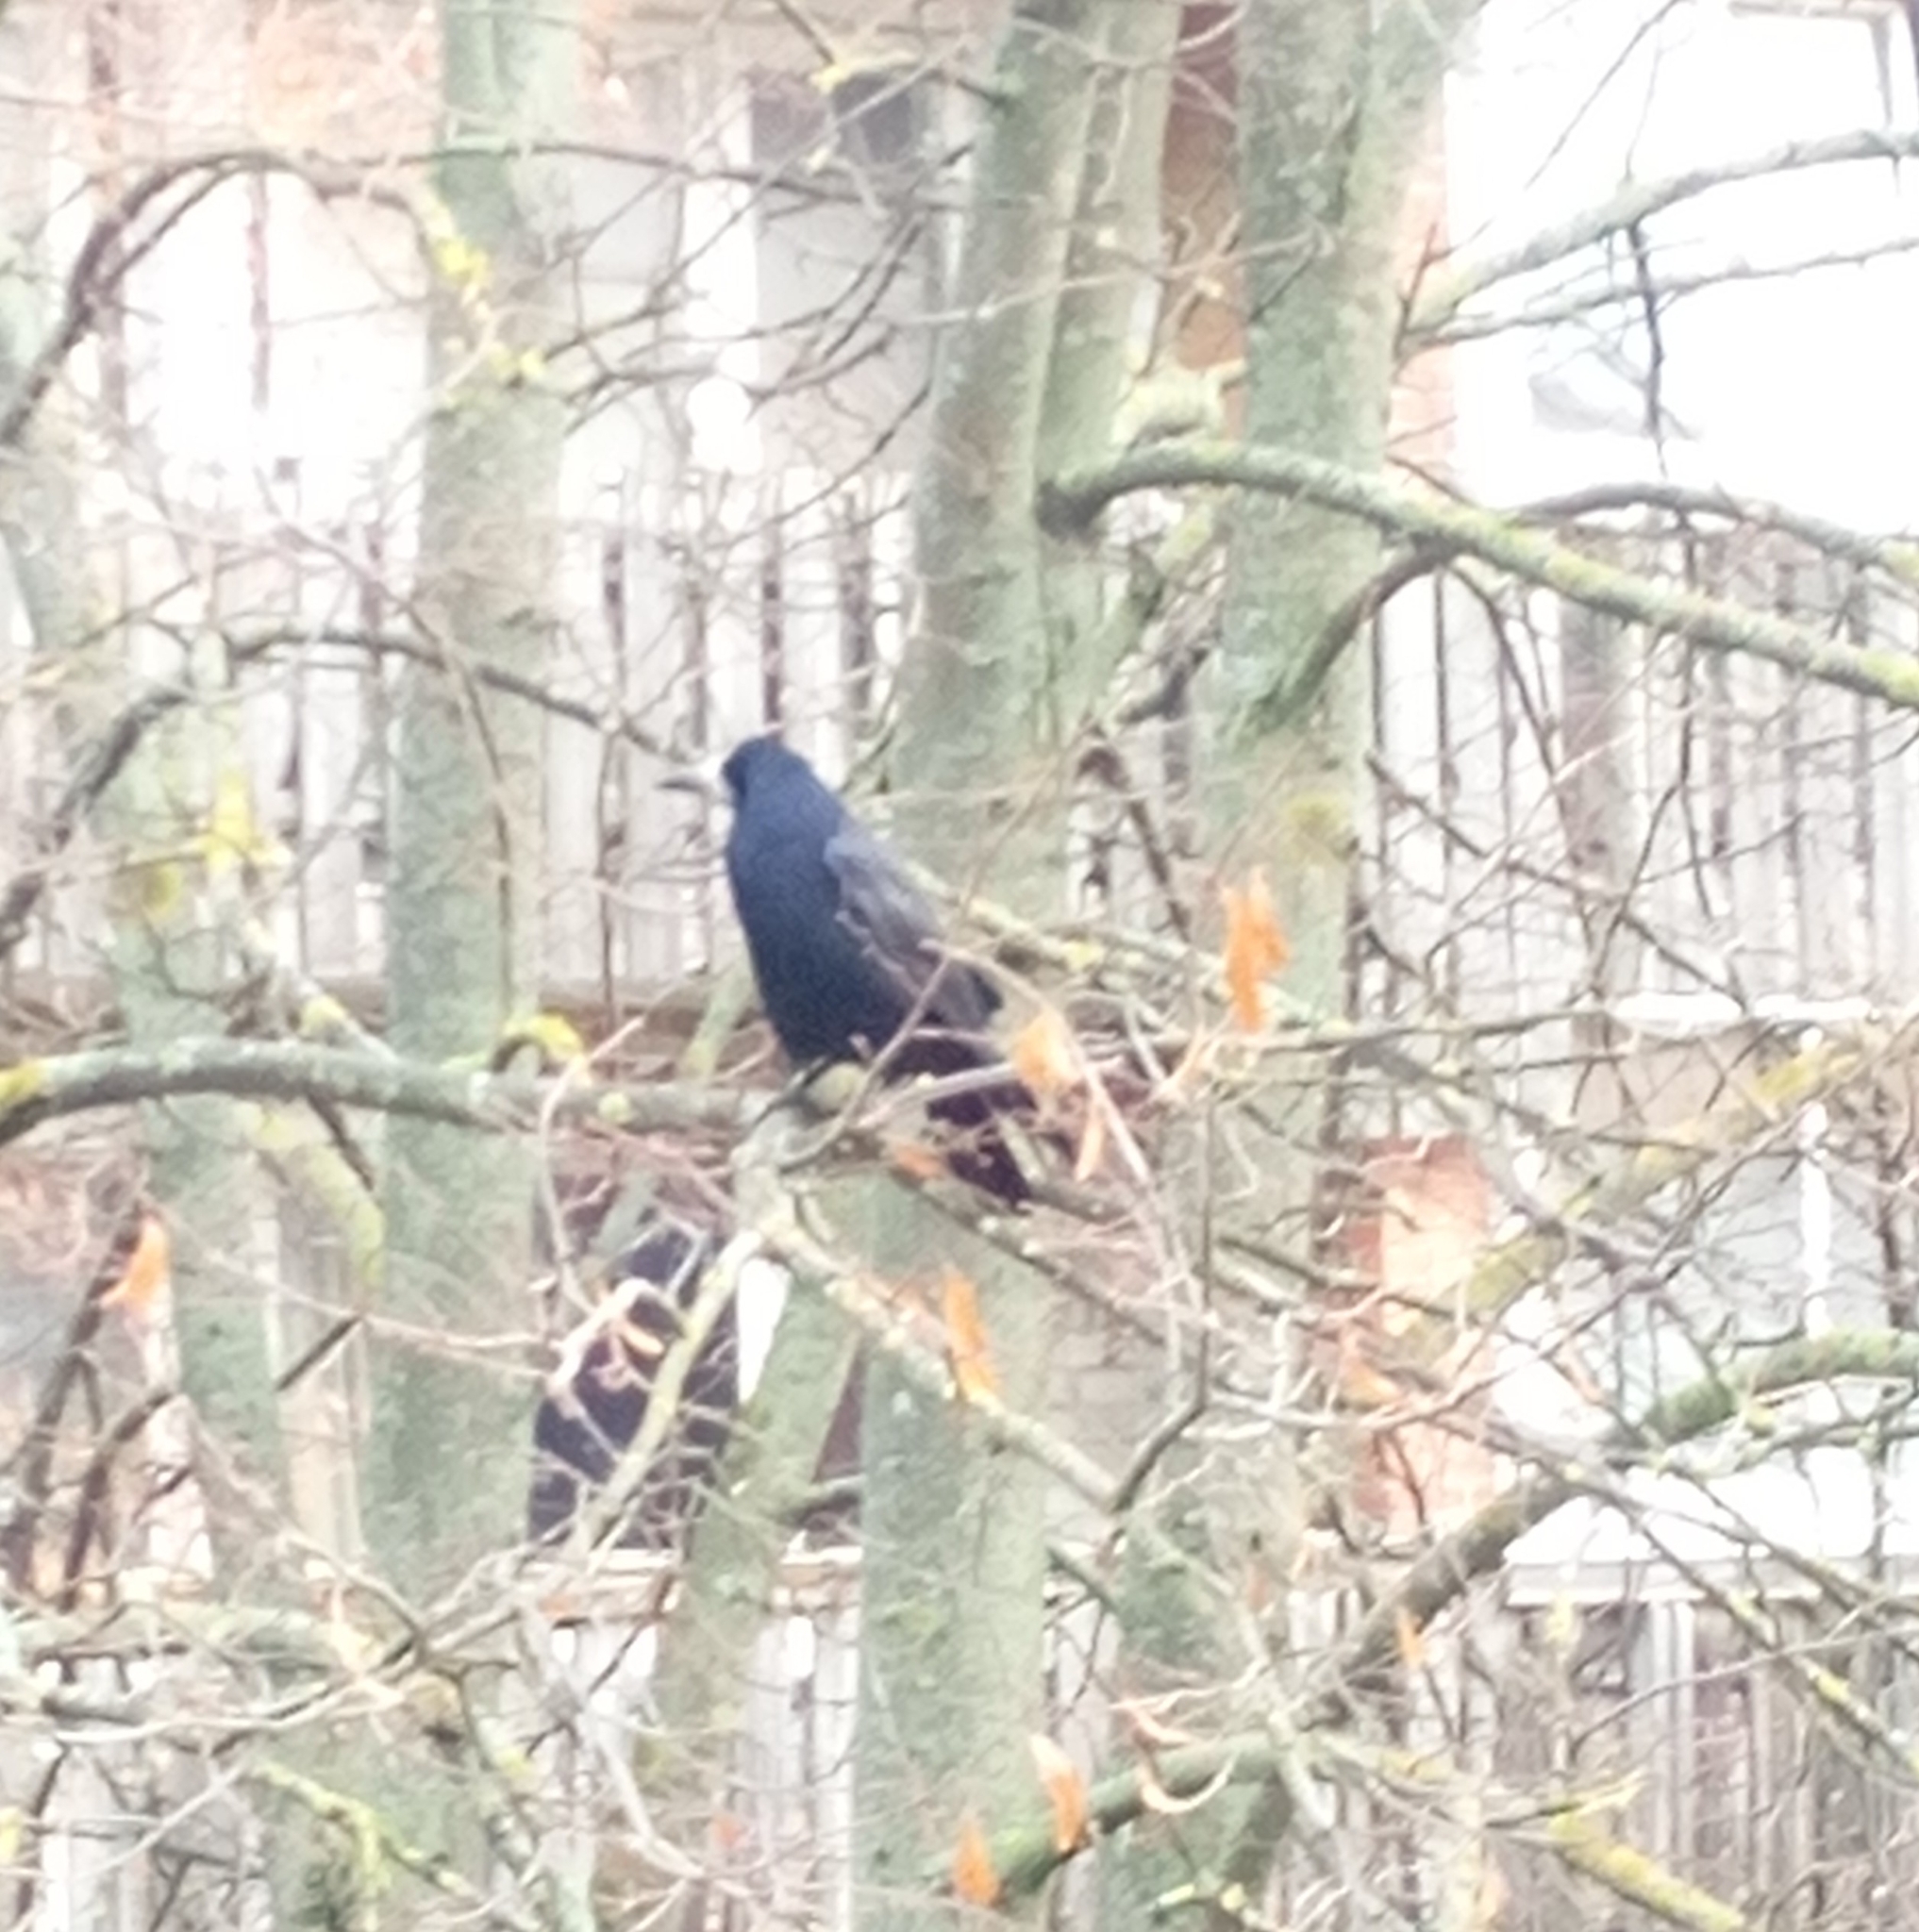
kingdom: Animalia
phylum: Chordata
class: Aves
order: Passeriformes
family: Corvidae
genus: Corvus
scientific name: Corvus frugilegus
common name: Rook
